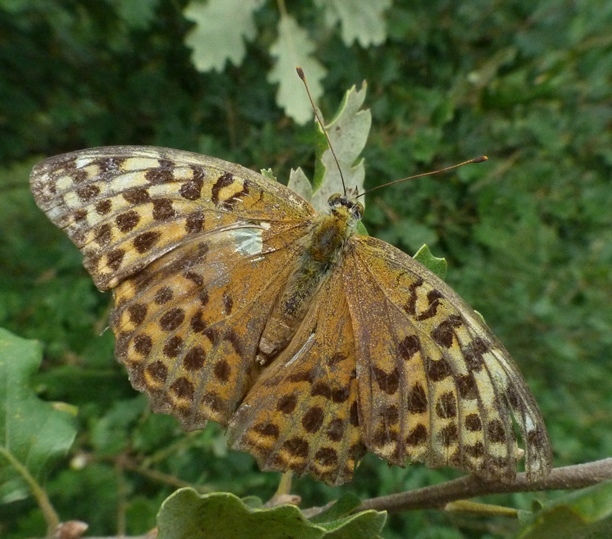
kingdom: Animalia
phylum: Arthropoda
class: Insecta
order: Lepidoptera
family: Nymphalidae
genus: Argynnis
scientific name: Argynnis paphia
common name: Silver-washed fritillary
